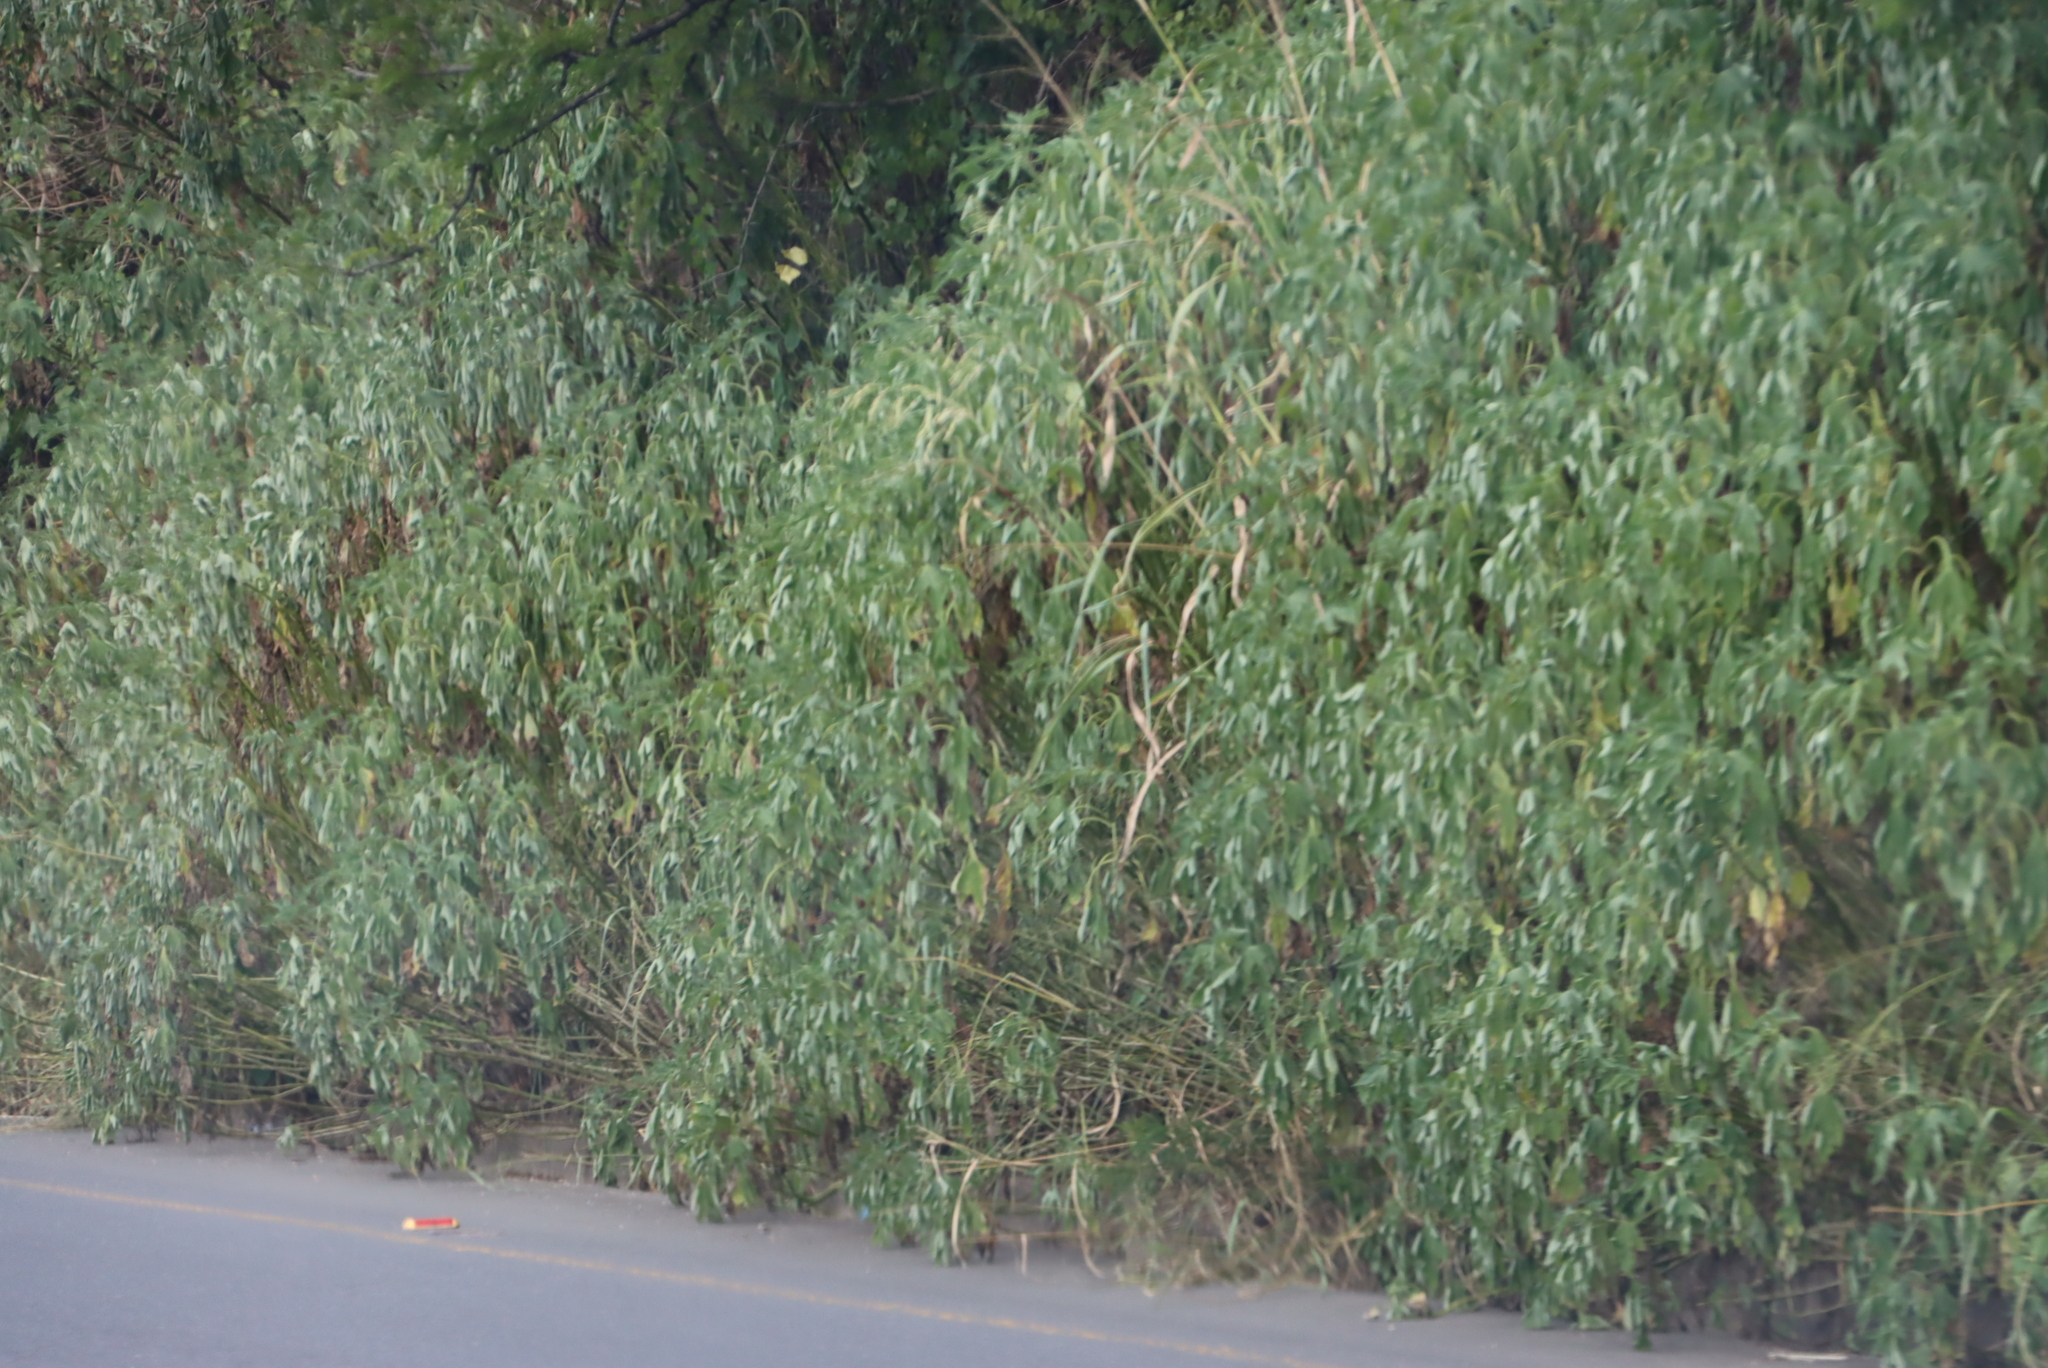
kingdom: Plantae
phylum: Tracheophyta
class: Magnoliopsida
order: Asterales
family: Asteraceae
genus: Tithonia
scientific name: Tithonia diversifolia
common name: Tree marigold
